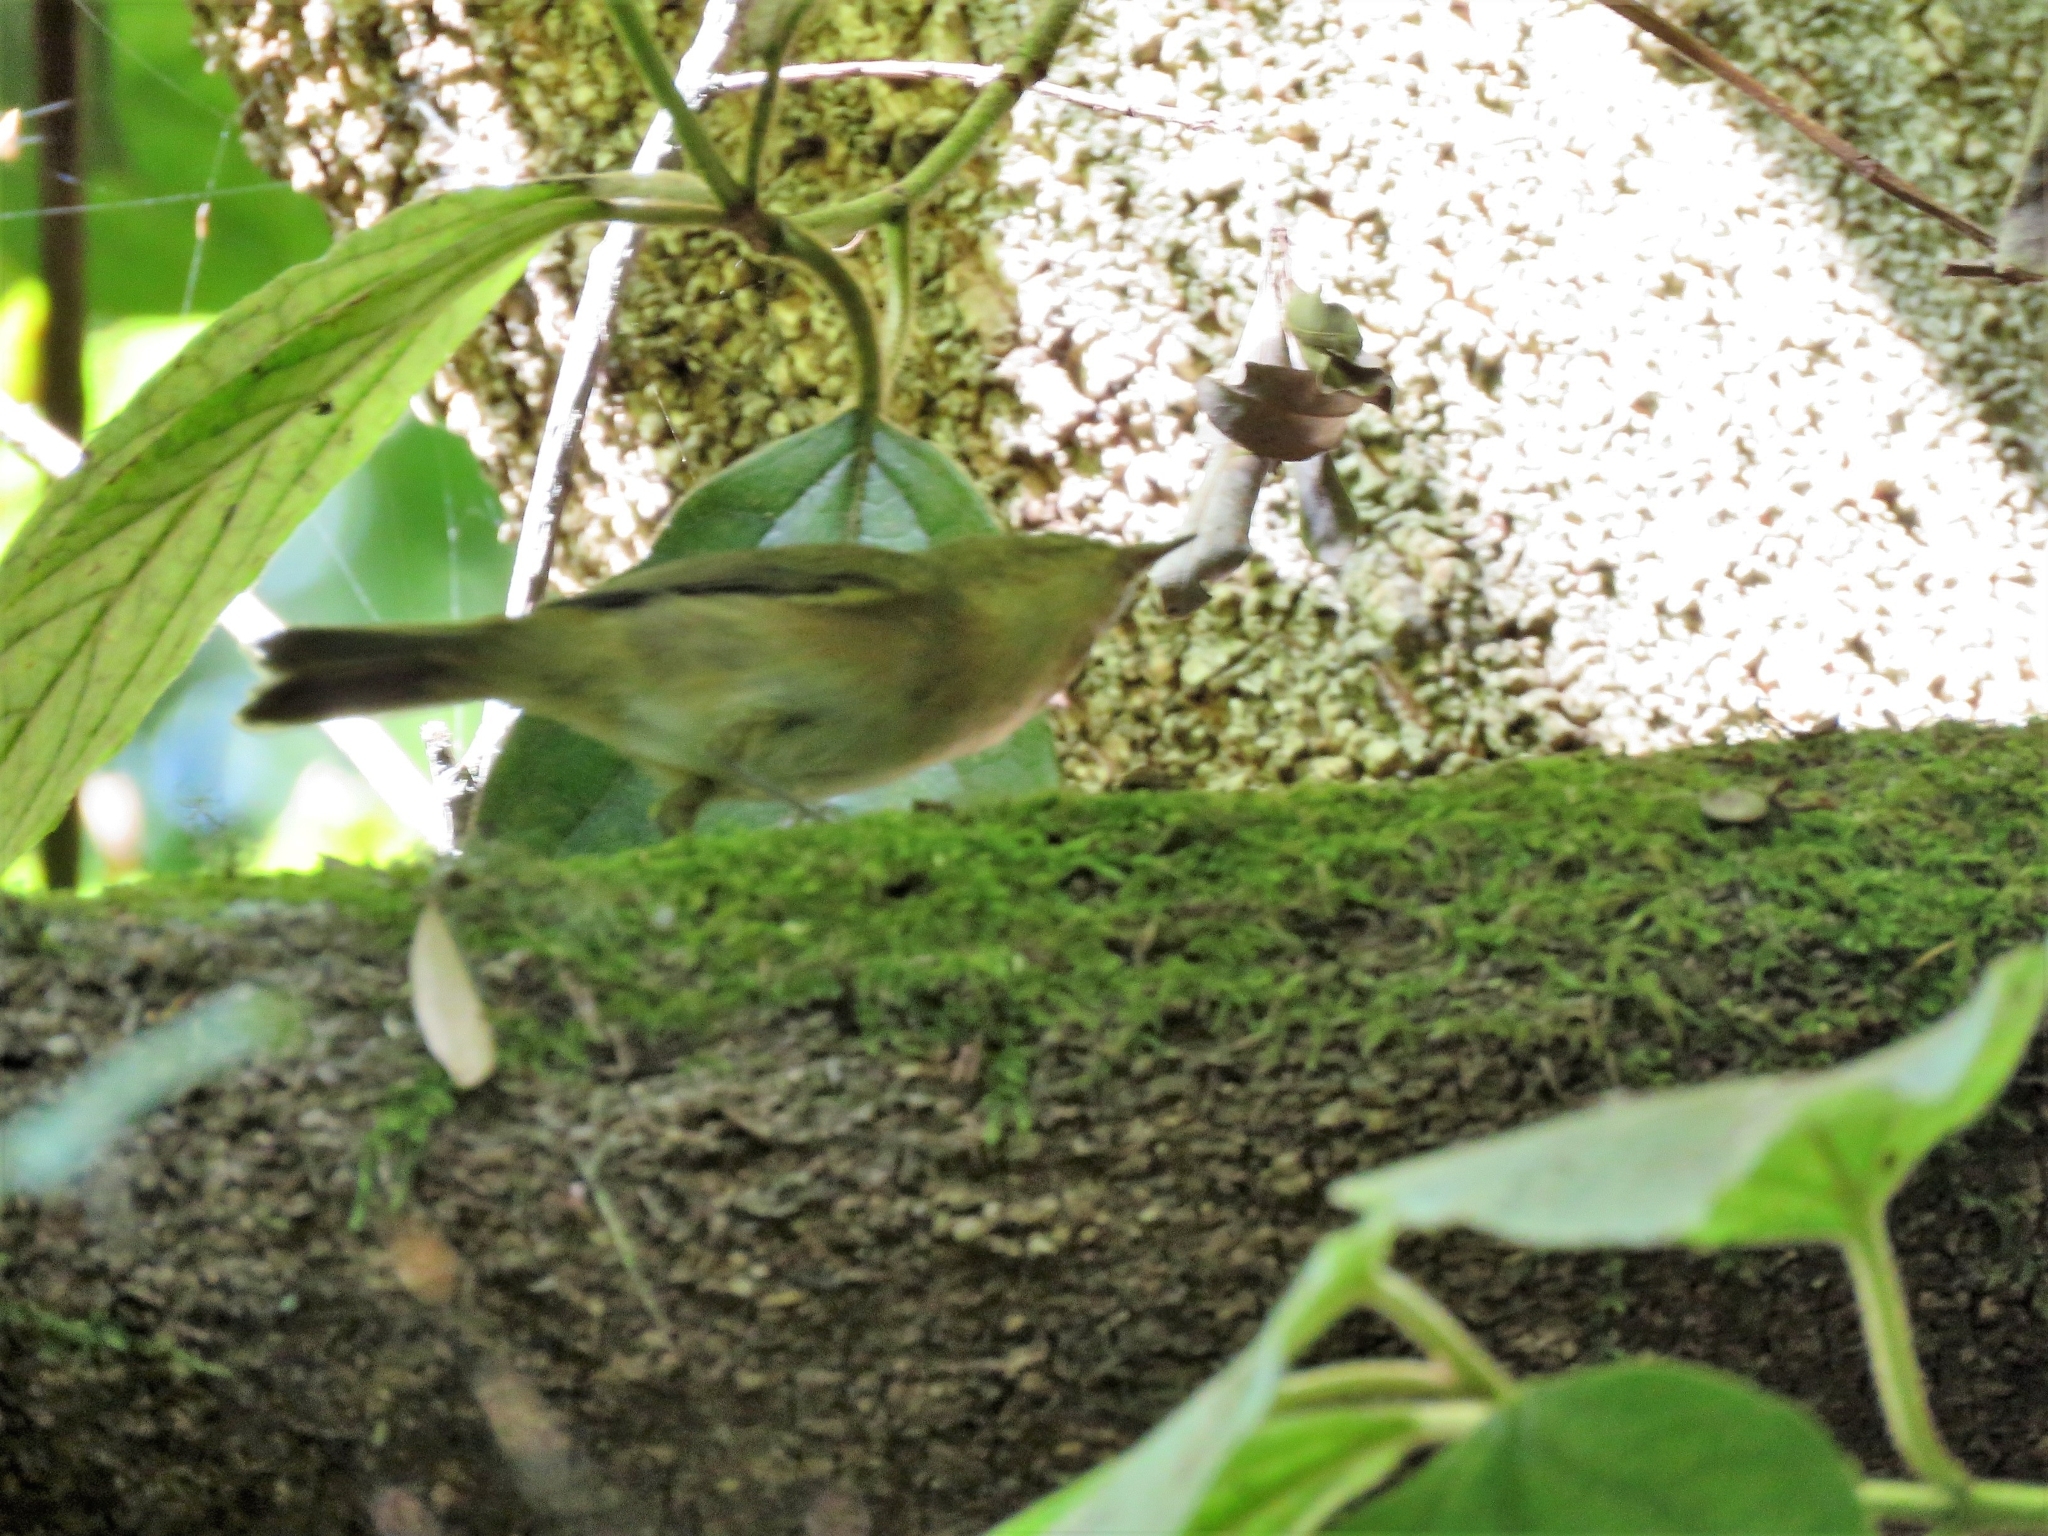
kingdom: Animalia
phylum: Chordata
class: Aves
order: Passeriformes
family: Phylloscopidae
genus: Phylloscopus
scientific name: Phylloscopus canariensis
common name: Canary islands chiffchaff
